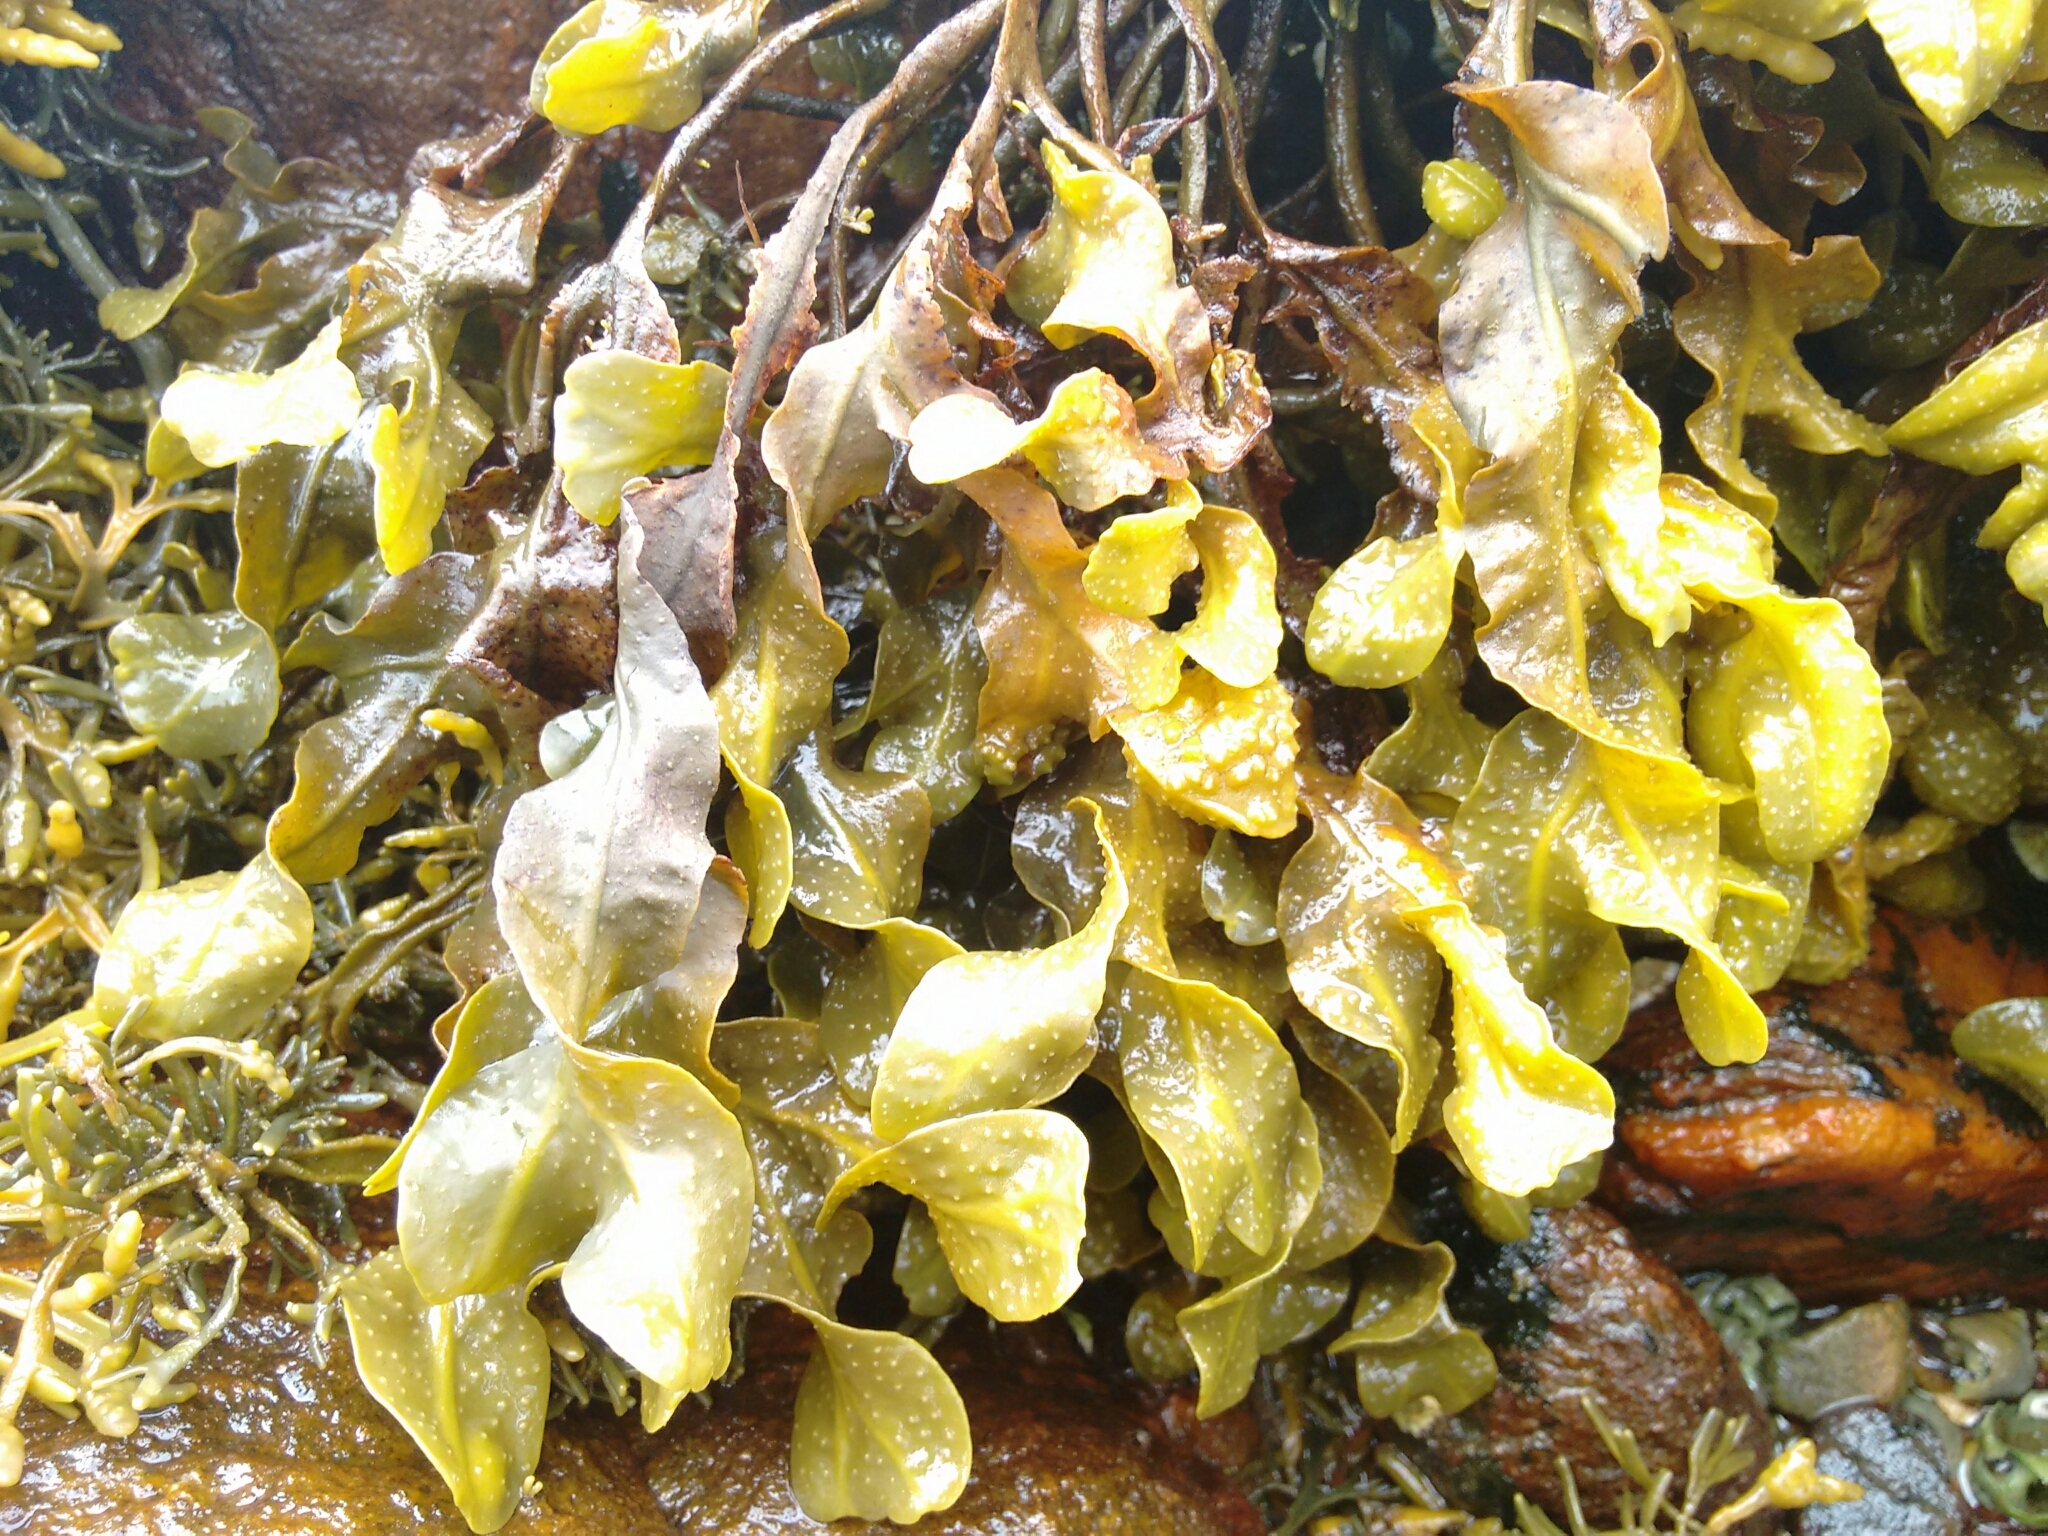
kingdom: Chromista
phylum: Ochrophyta
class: Phaeophyceae
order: Fucales
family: Fucaceae
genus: Fucus
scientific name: Fucus spiralis
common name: Spiral wrack
